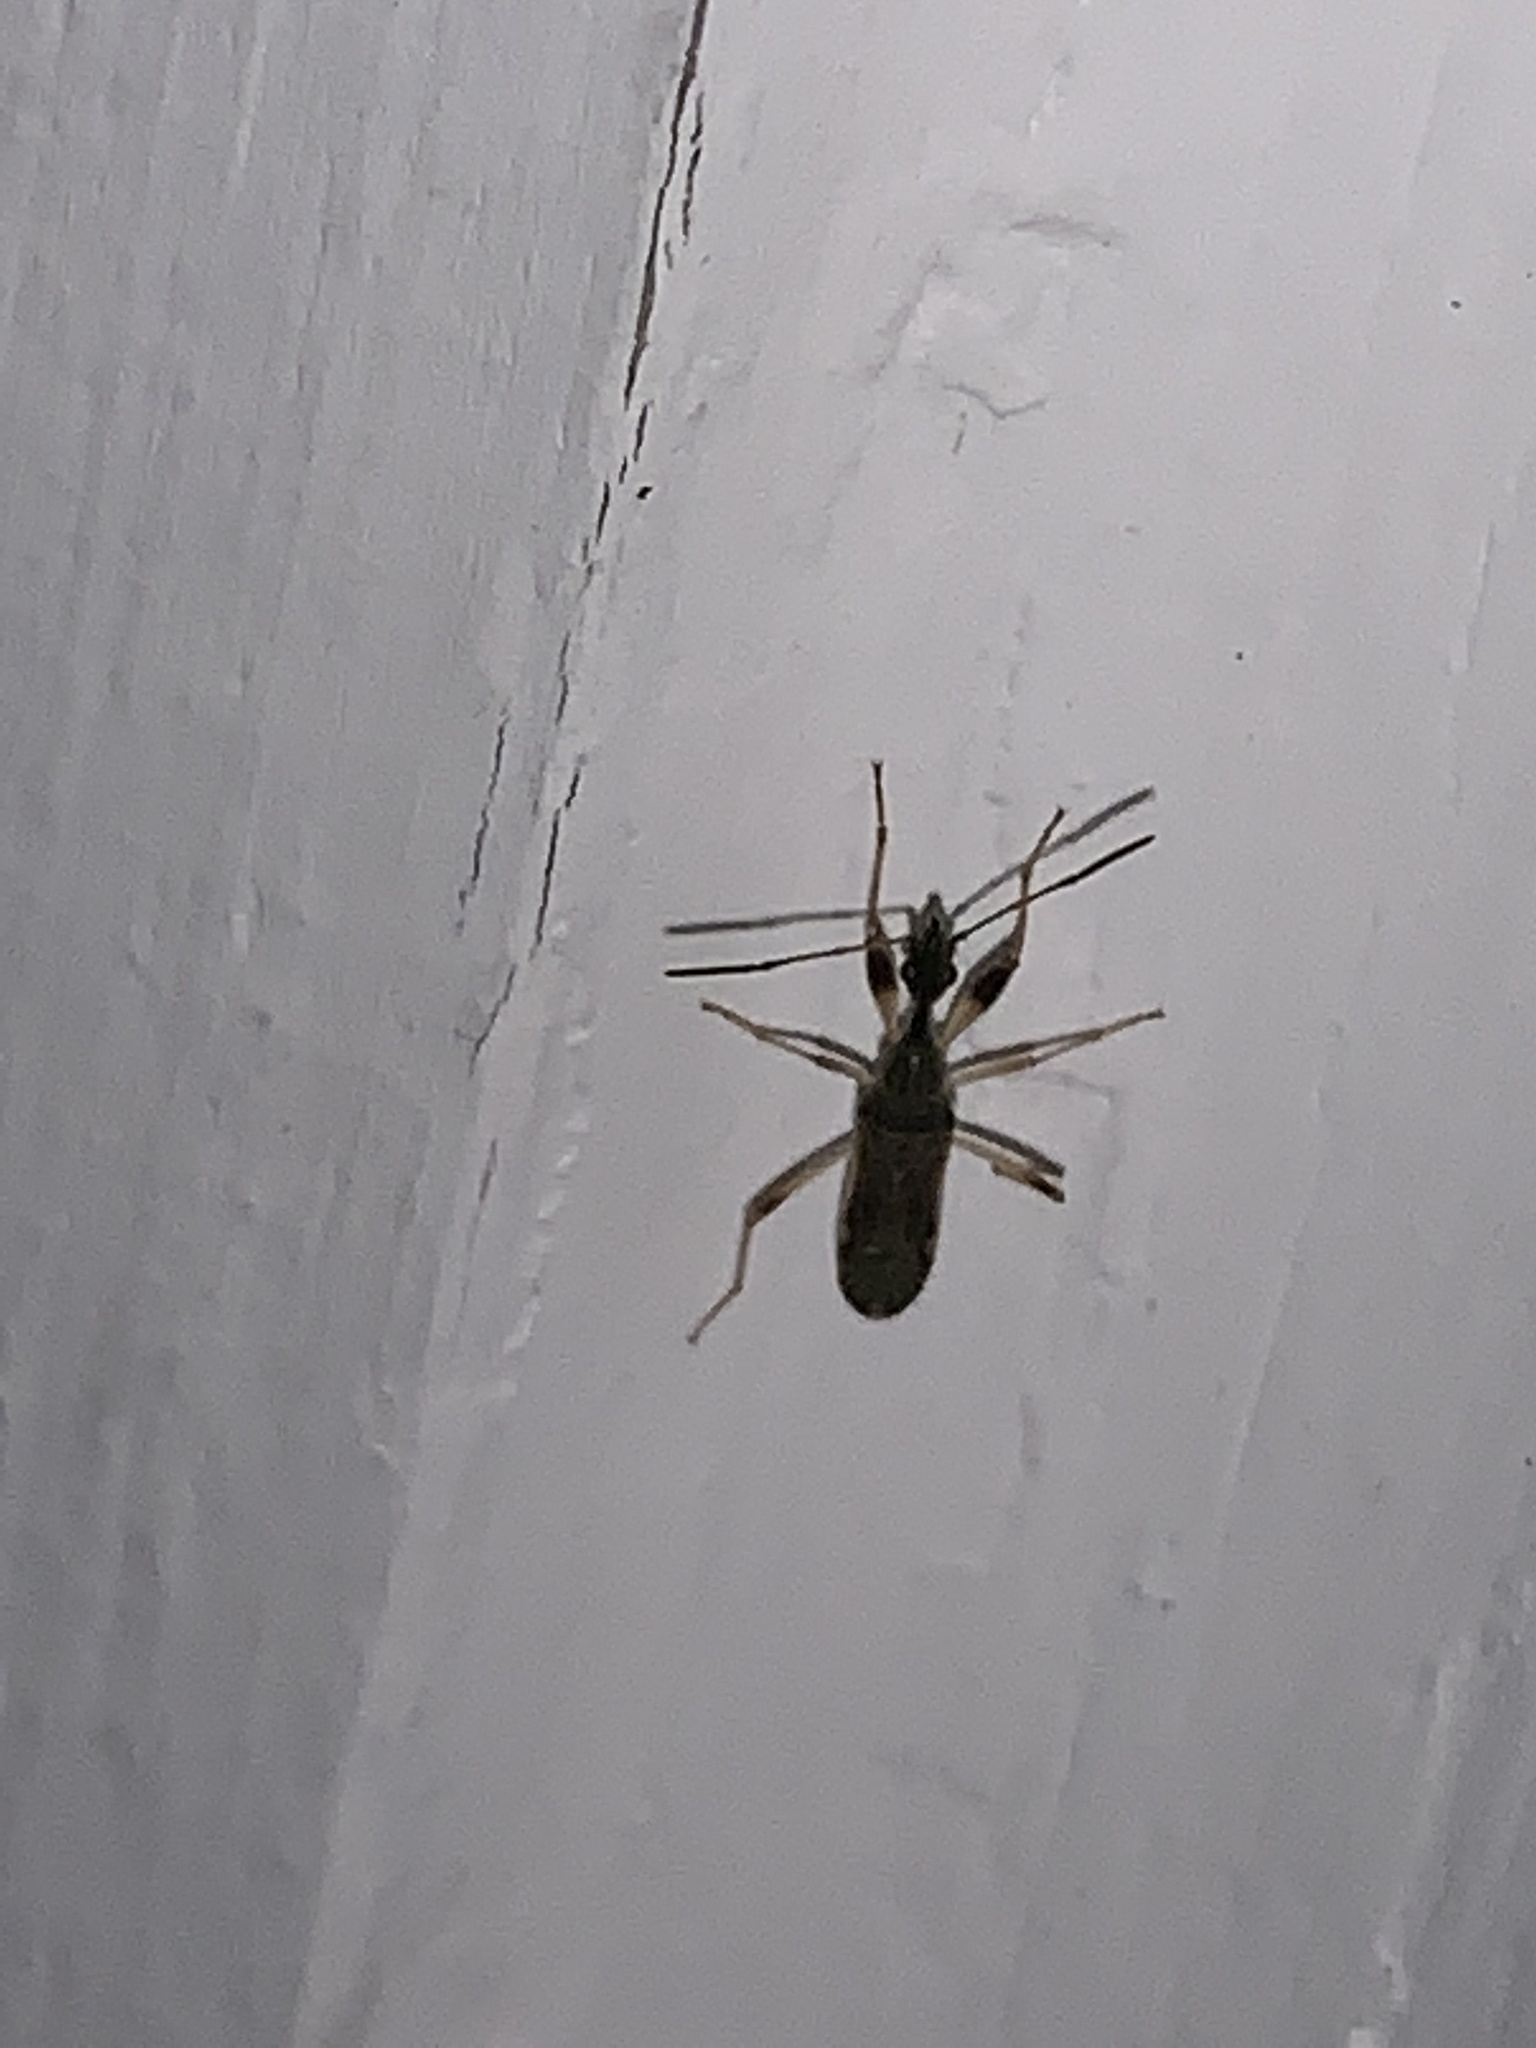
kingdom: Animalia
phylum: Arthropoda
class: Insecta
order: Hemiptera
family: Rhyparochromidae
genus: Myodocha
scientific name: Myodocha serripes
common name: Long-necked seed bug
